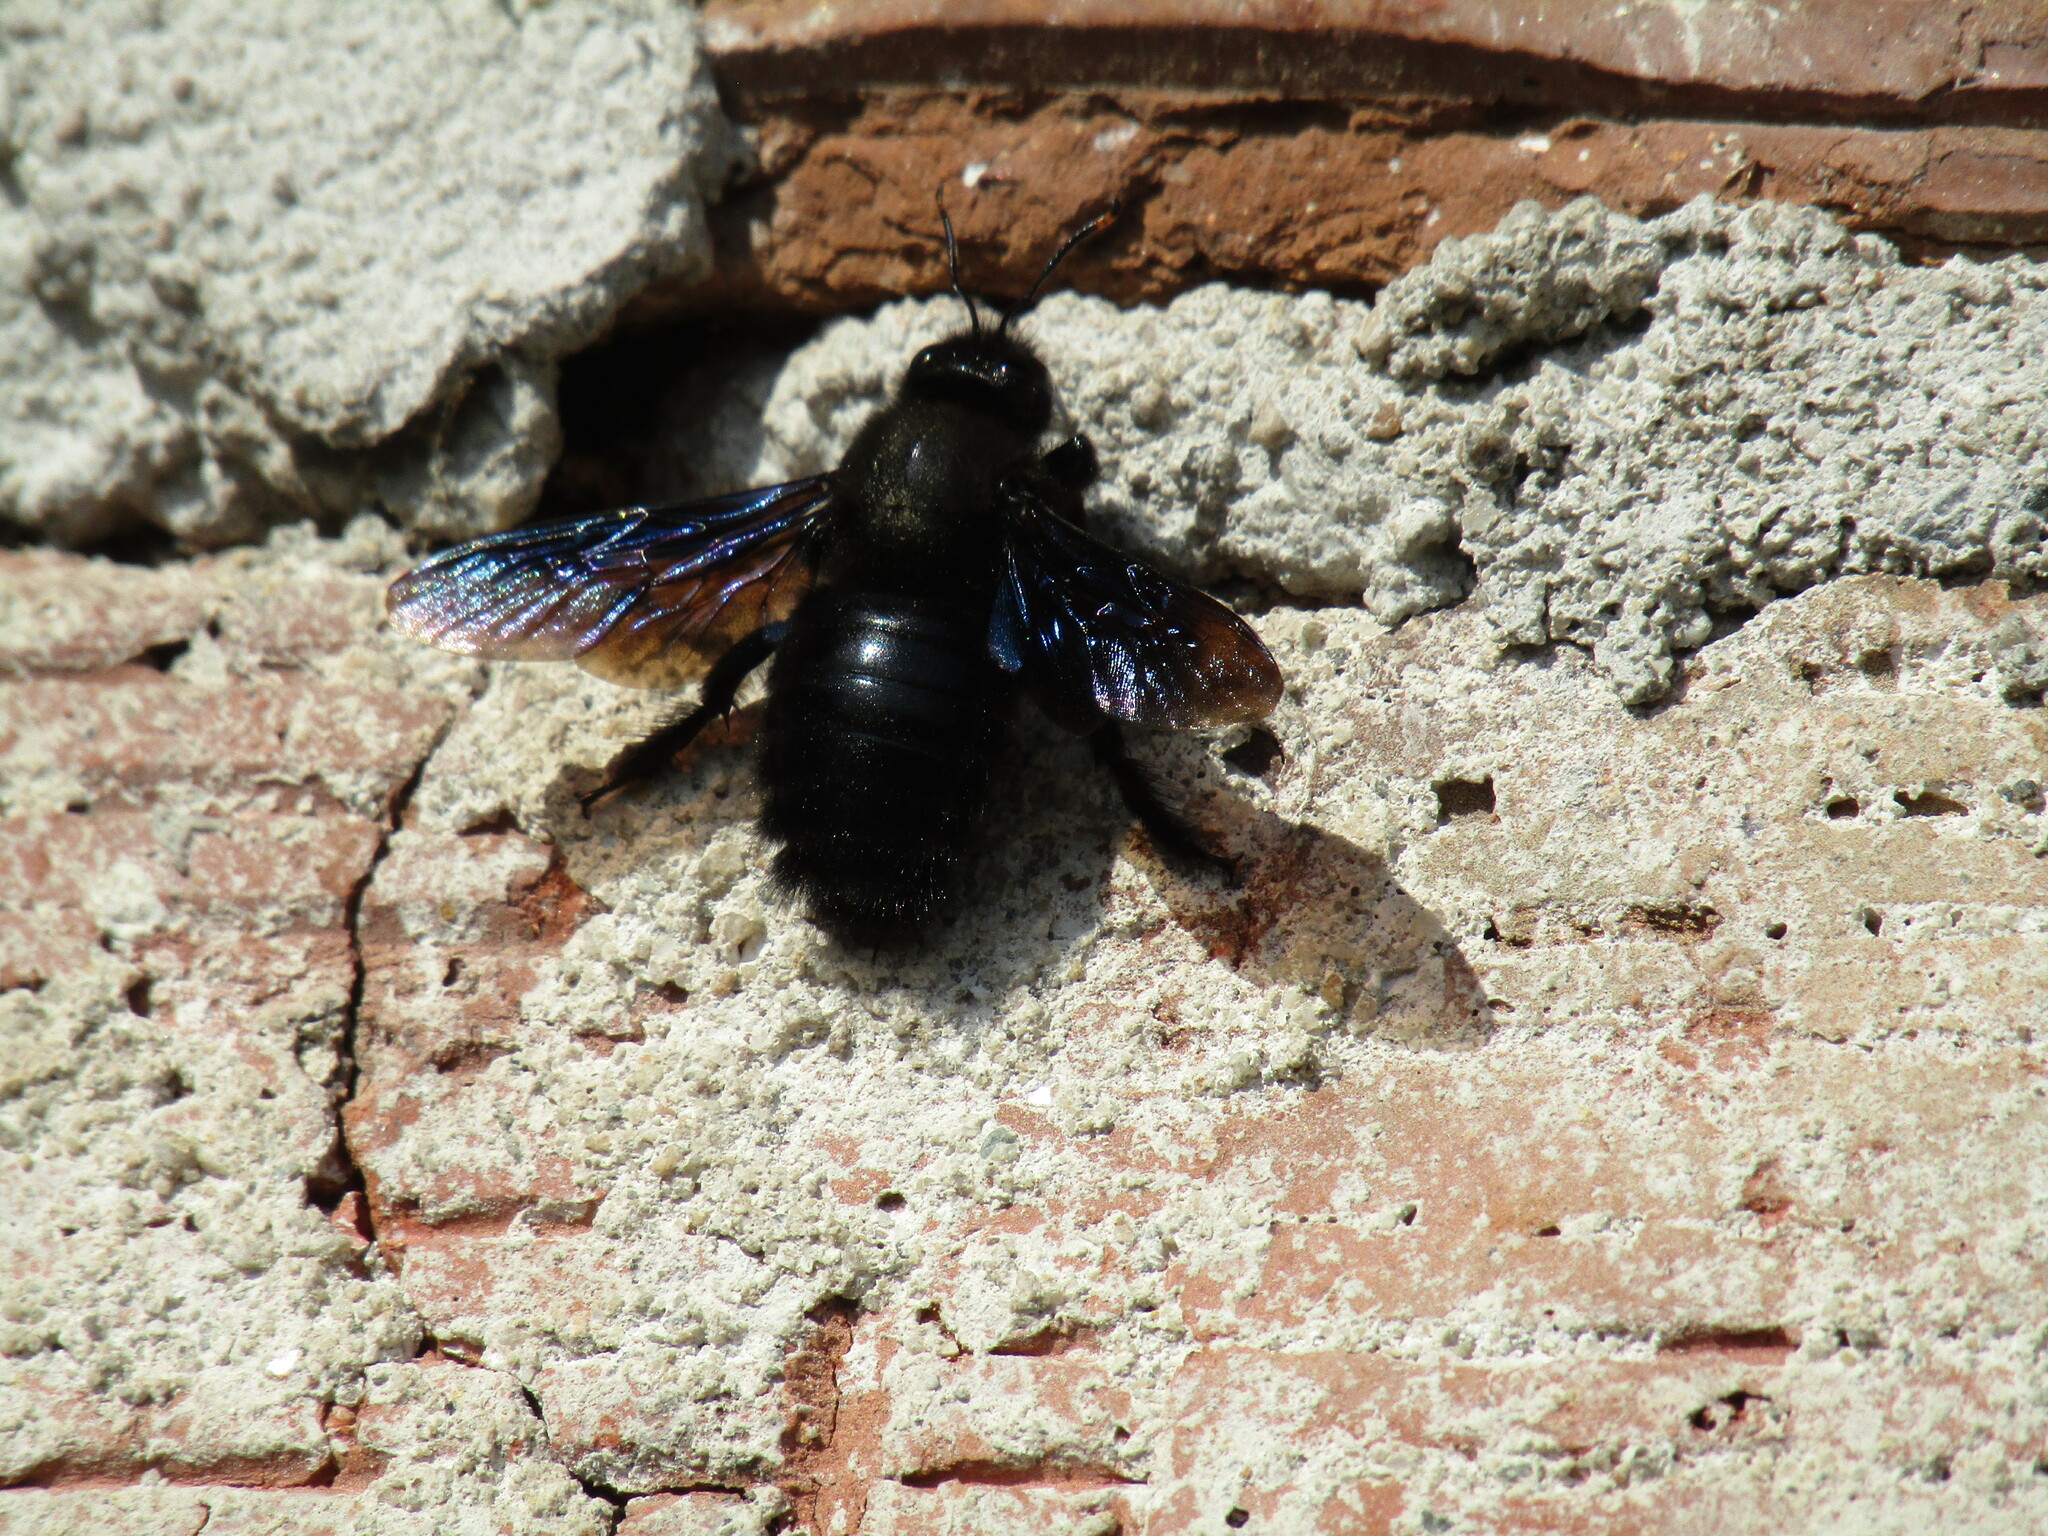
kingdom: Animalia
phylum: Arthropoda
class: Insecta
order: Hymenoptera
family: Apidae
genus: Xylocopa
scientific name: Xylocopa violacea
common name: Violet carpenter bee
